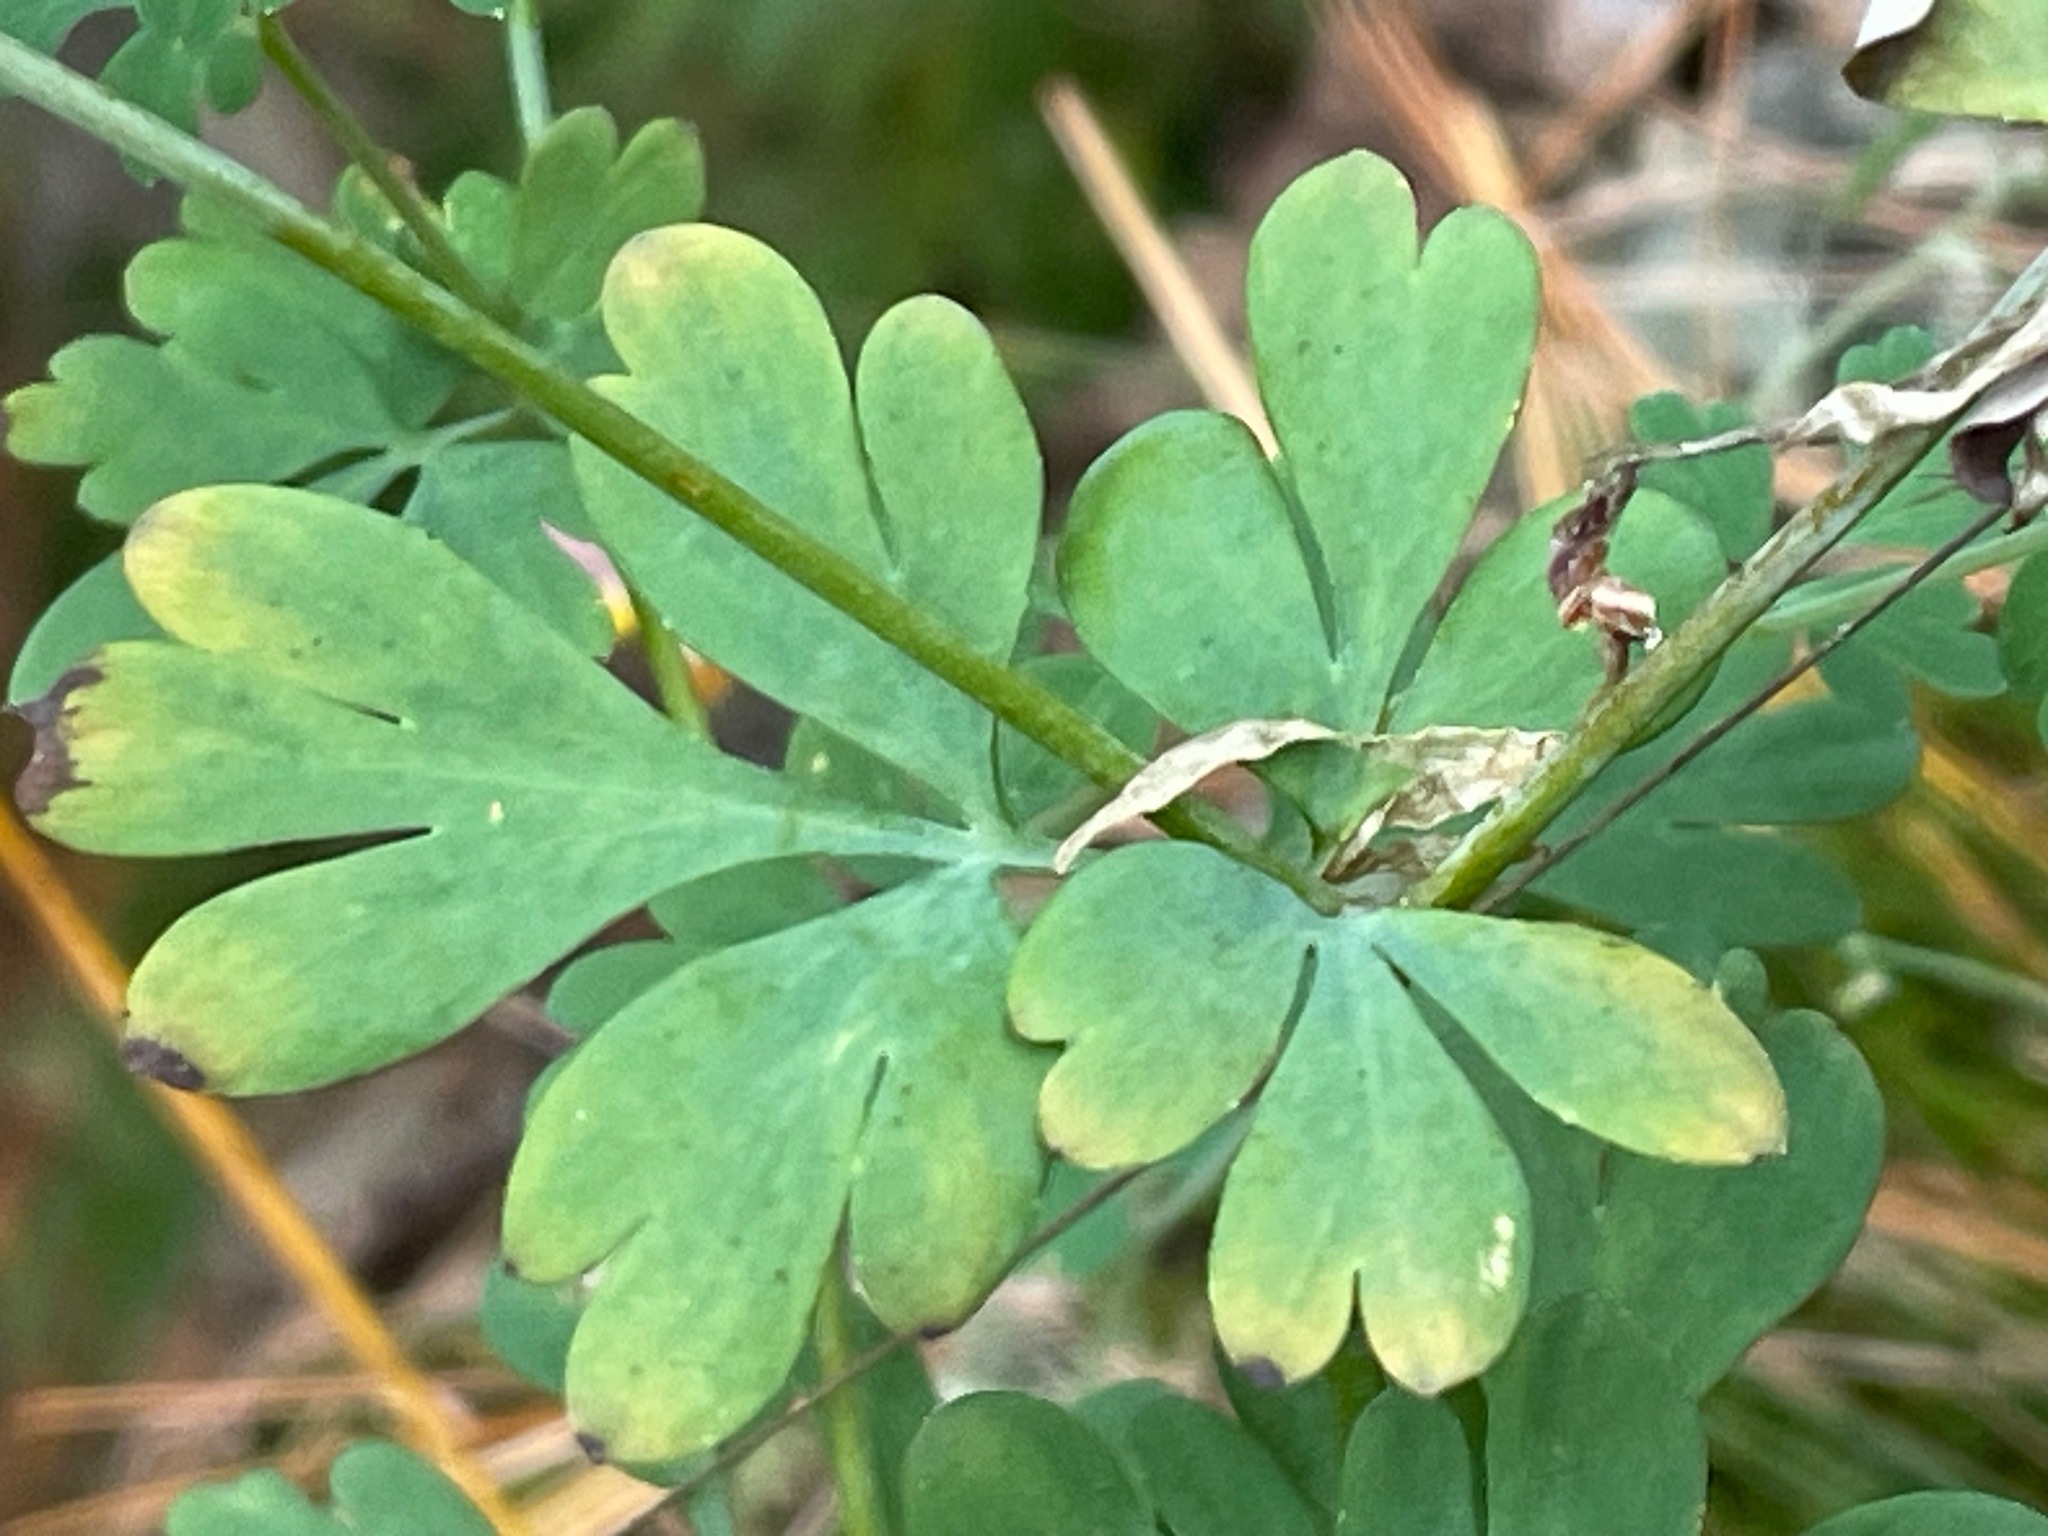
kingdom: Plantae
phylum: Tracheophyta
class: Magnoliopsida
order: Ranunculales
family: Papaveraceae
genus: Capnoides
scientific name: Capnoides sempervirens
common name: Rock harlequin
